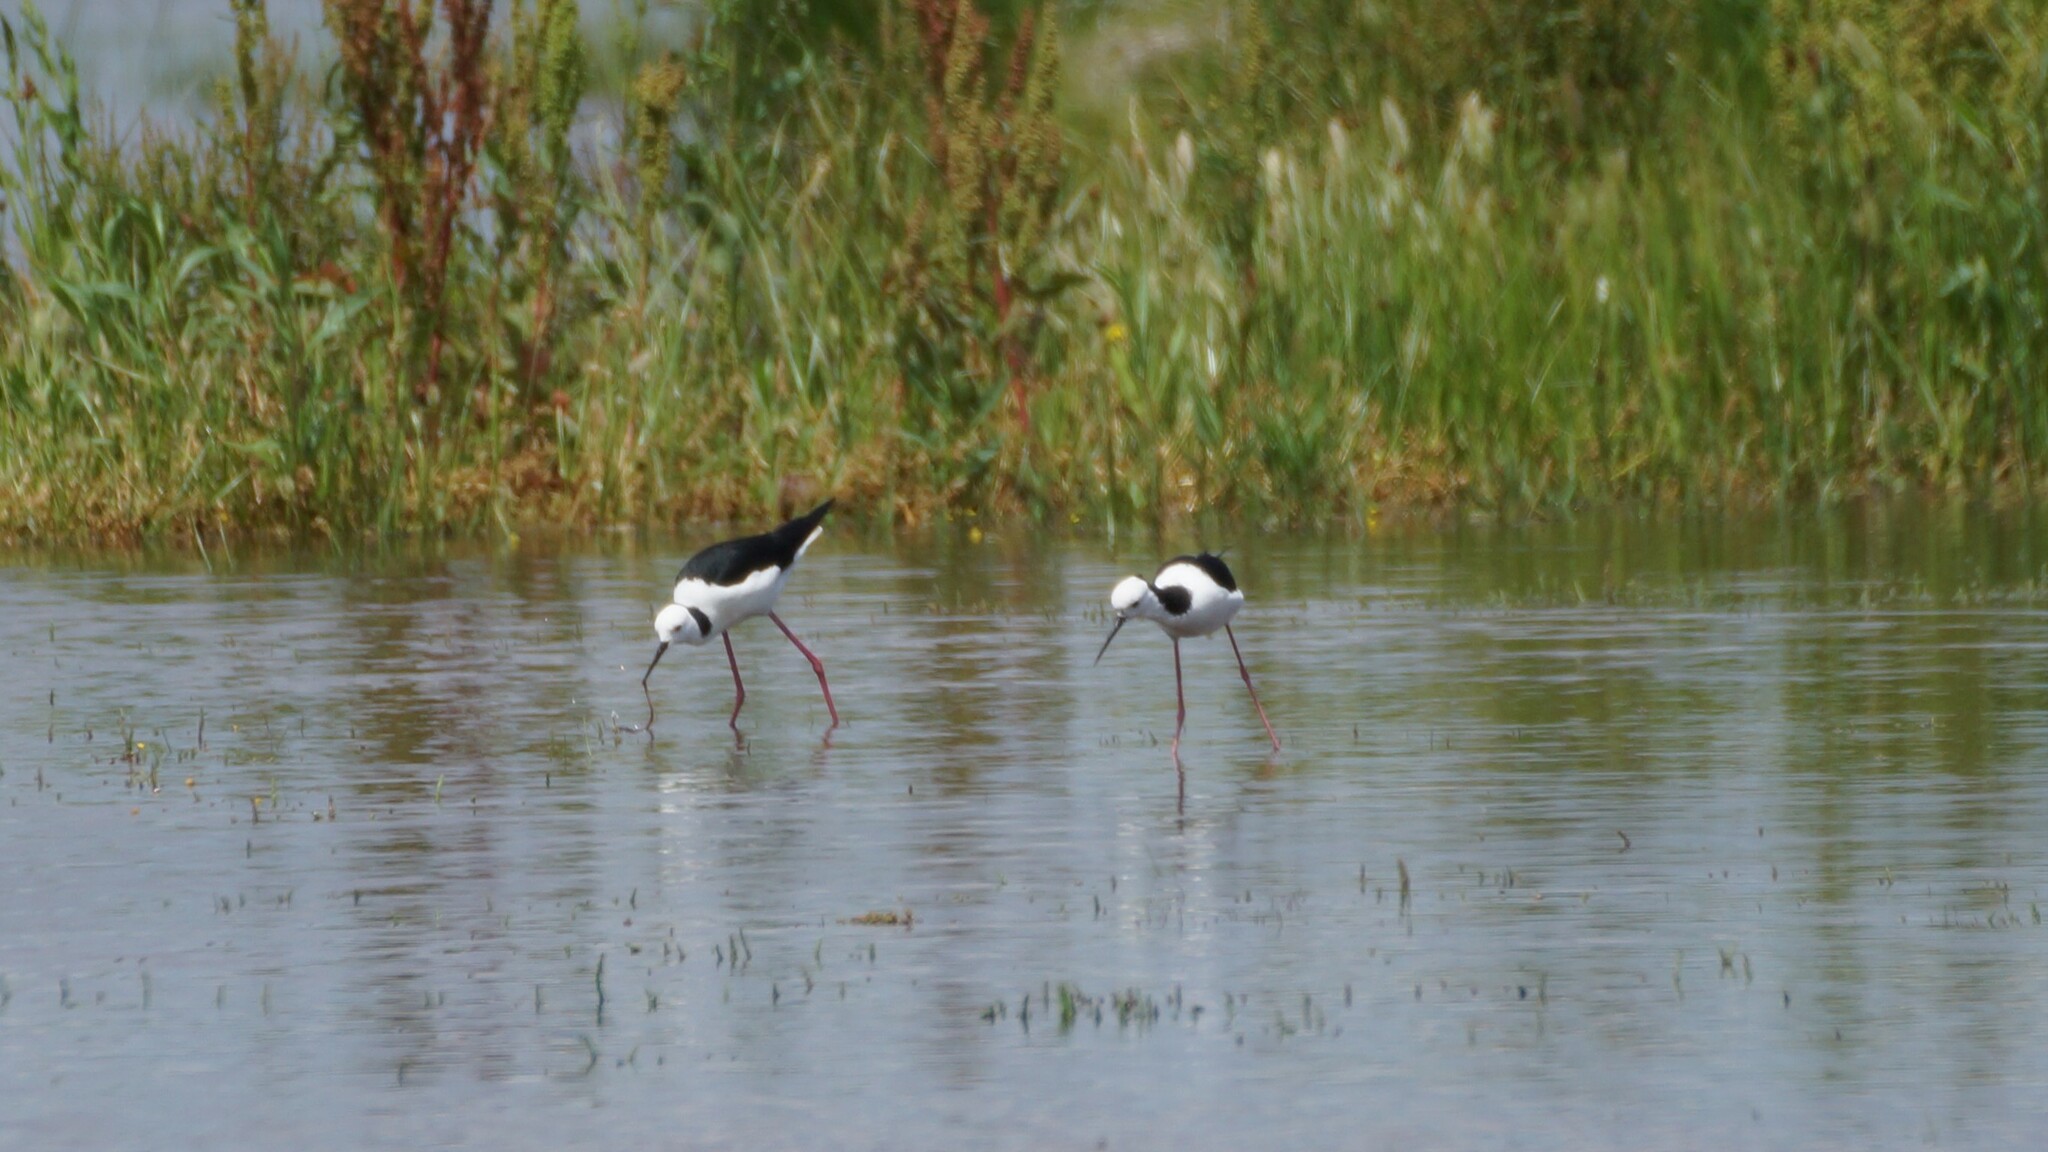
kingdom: Animalia
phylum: Chordata
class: Aves
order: Charadriiformes
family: Recurvirostridae
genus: Himantopus
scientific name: Himantopus leucocephalus
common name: White-headed stilt
